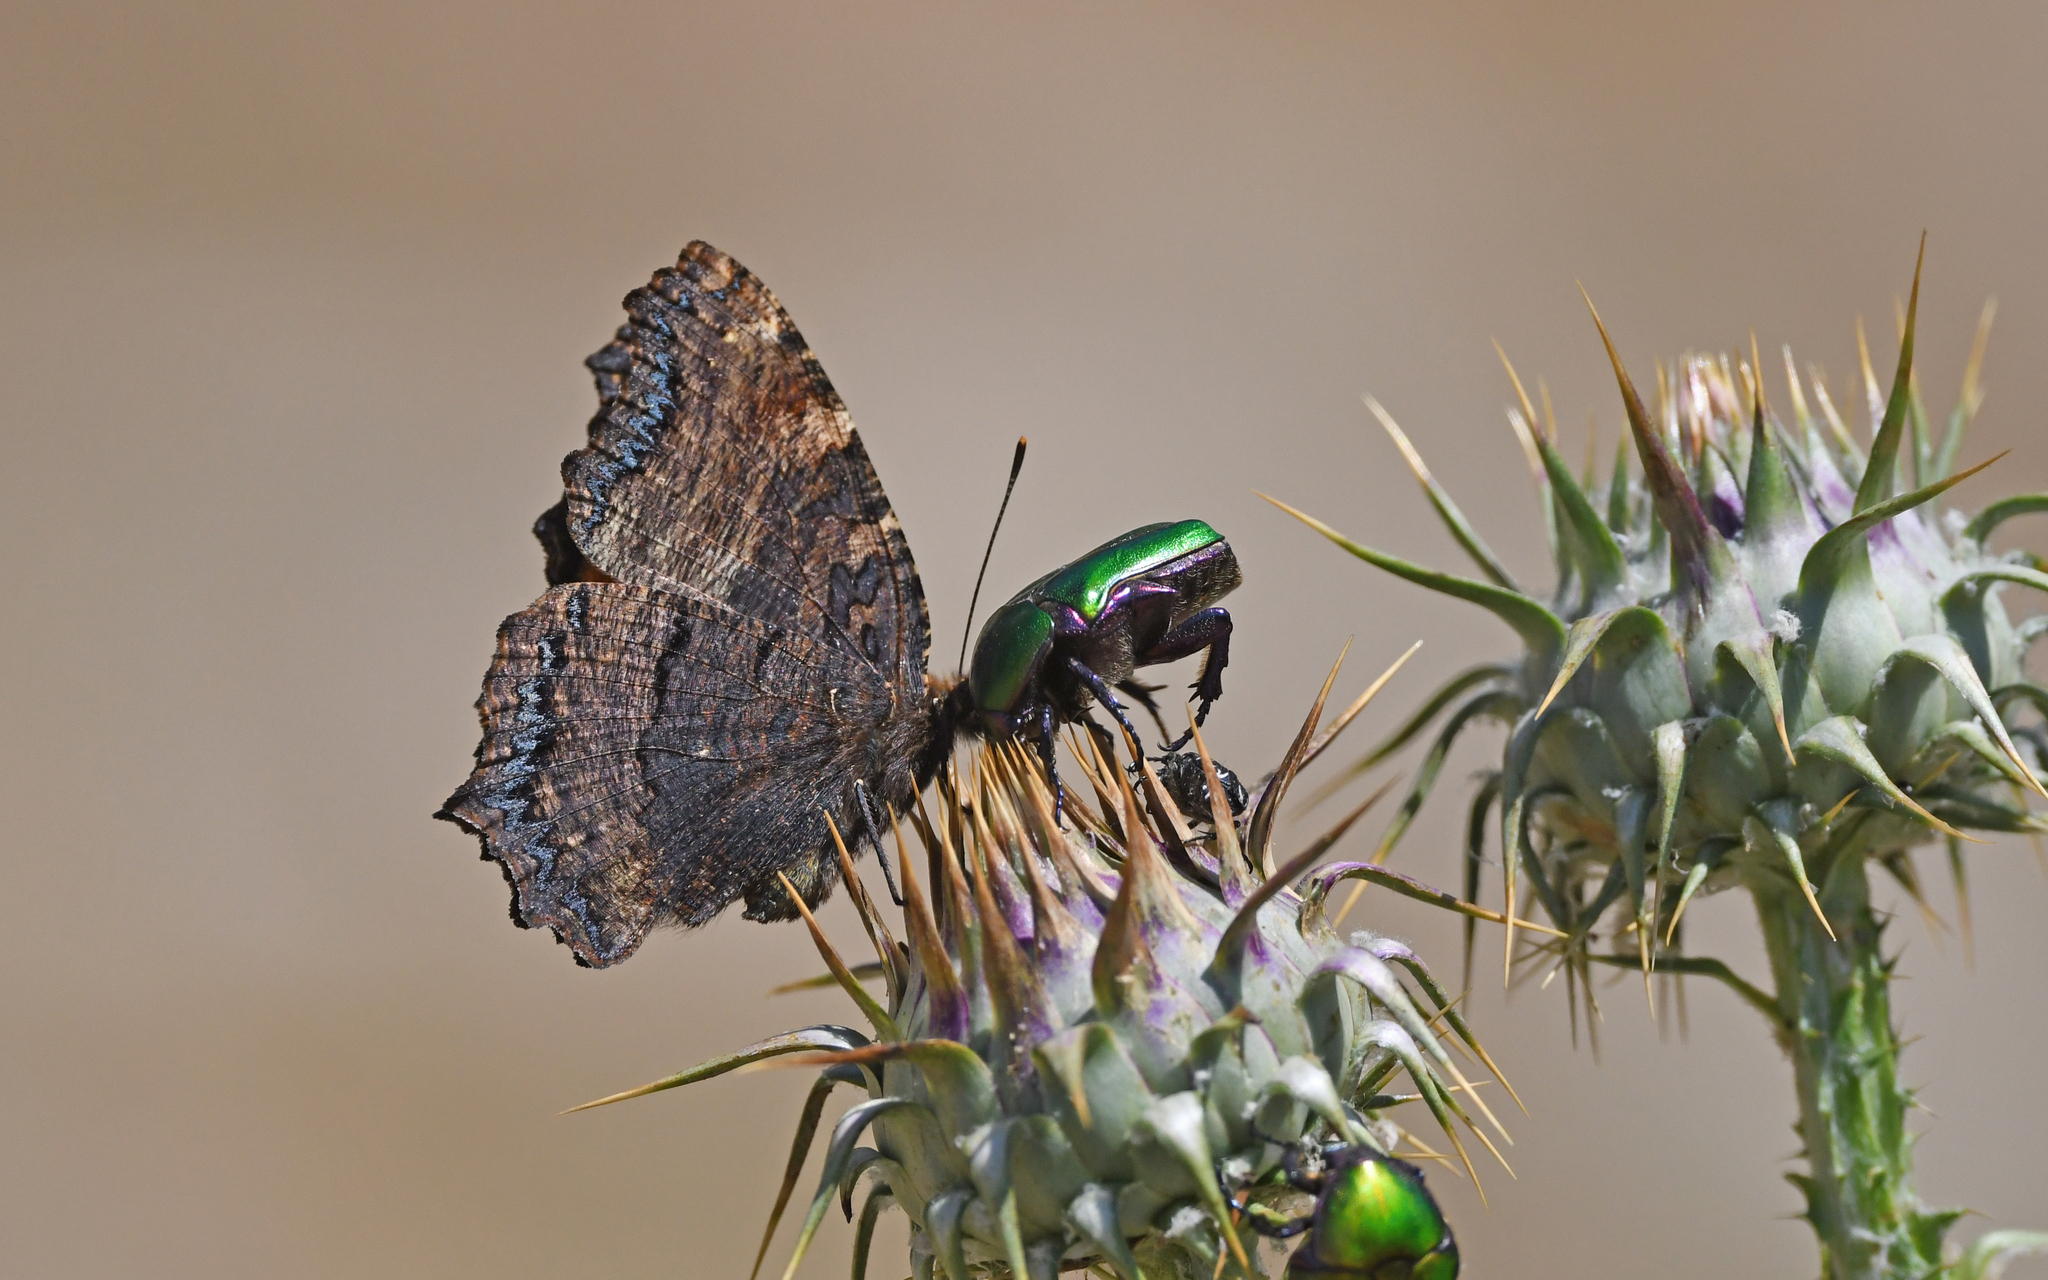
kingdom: Animalia
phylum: Arthropoda
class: Insecta
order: Lepidoptera
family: Nymphalidae
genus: Nymphalis
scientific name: Nymphalis polychloros
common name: Large tortoiseshell
